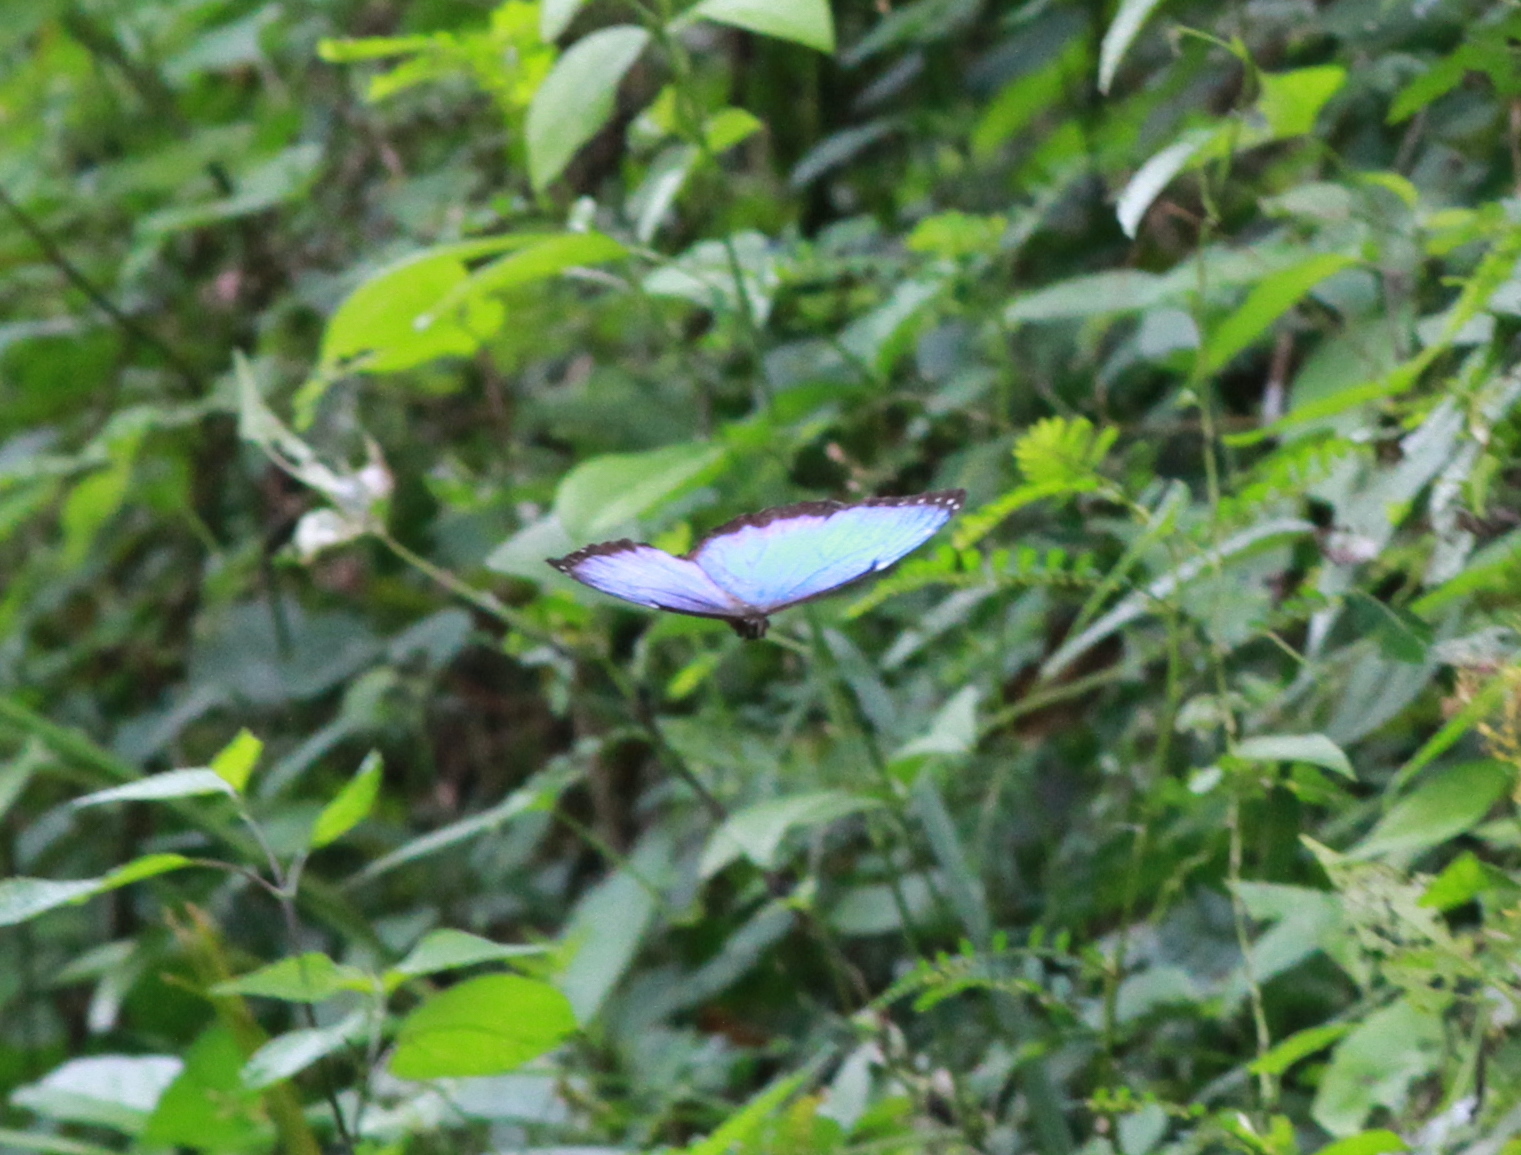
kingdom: Animalia
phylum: Arthropoda
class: Insecta
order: Lepidoptera
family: Nymphalidae
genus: Morpho
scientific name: Morpho helenor
